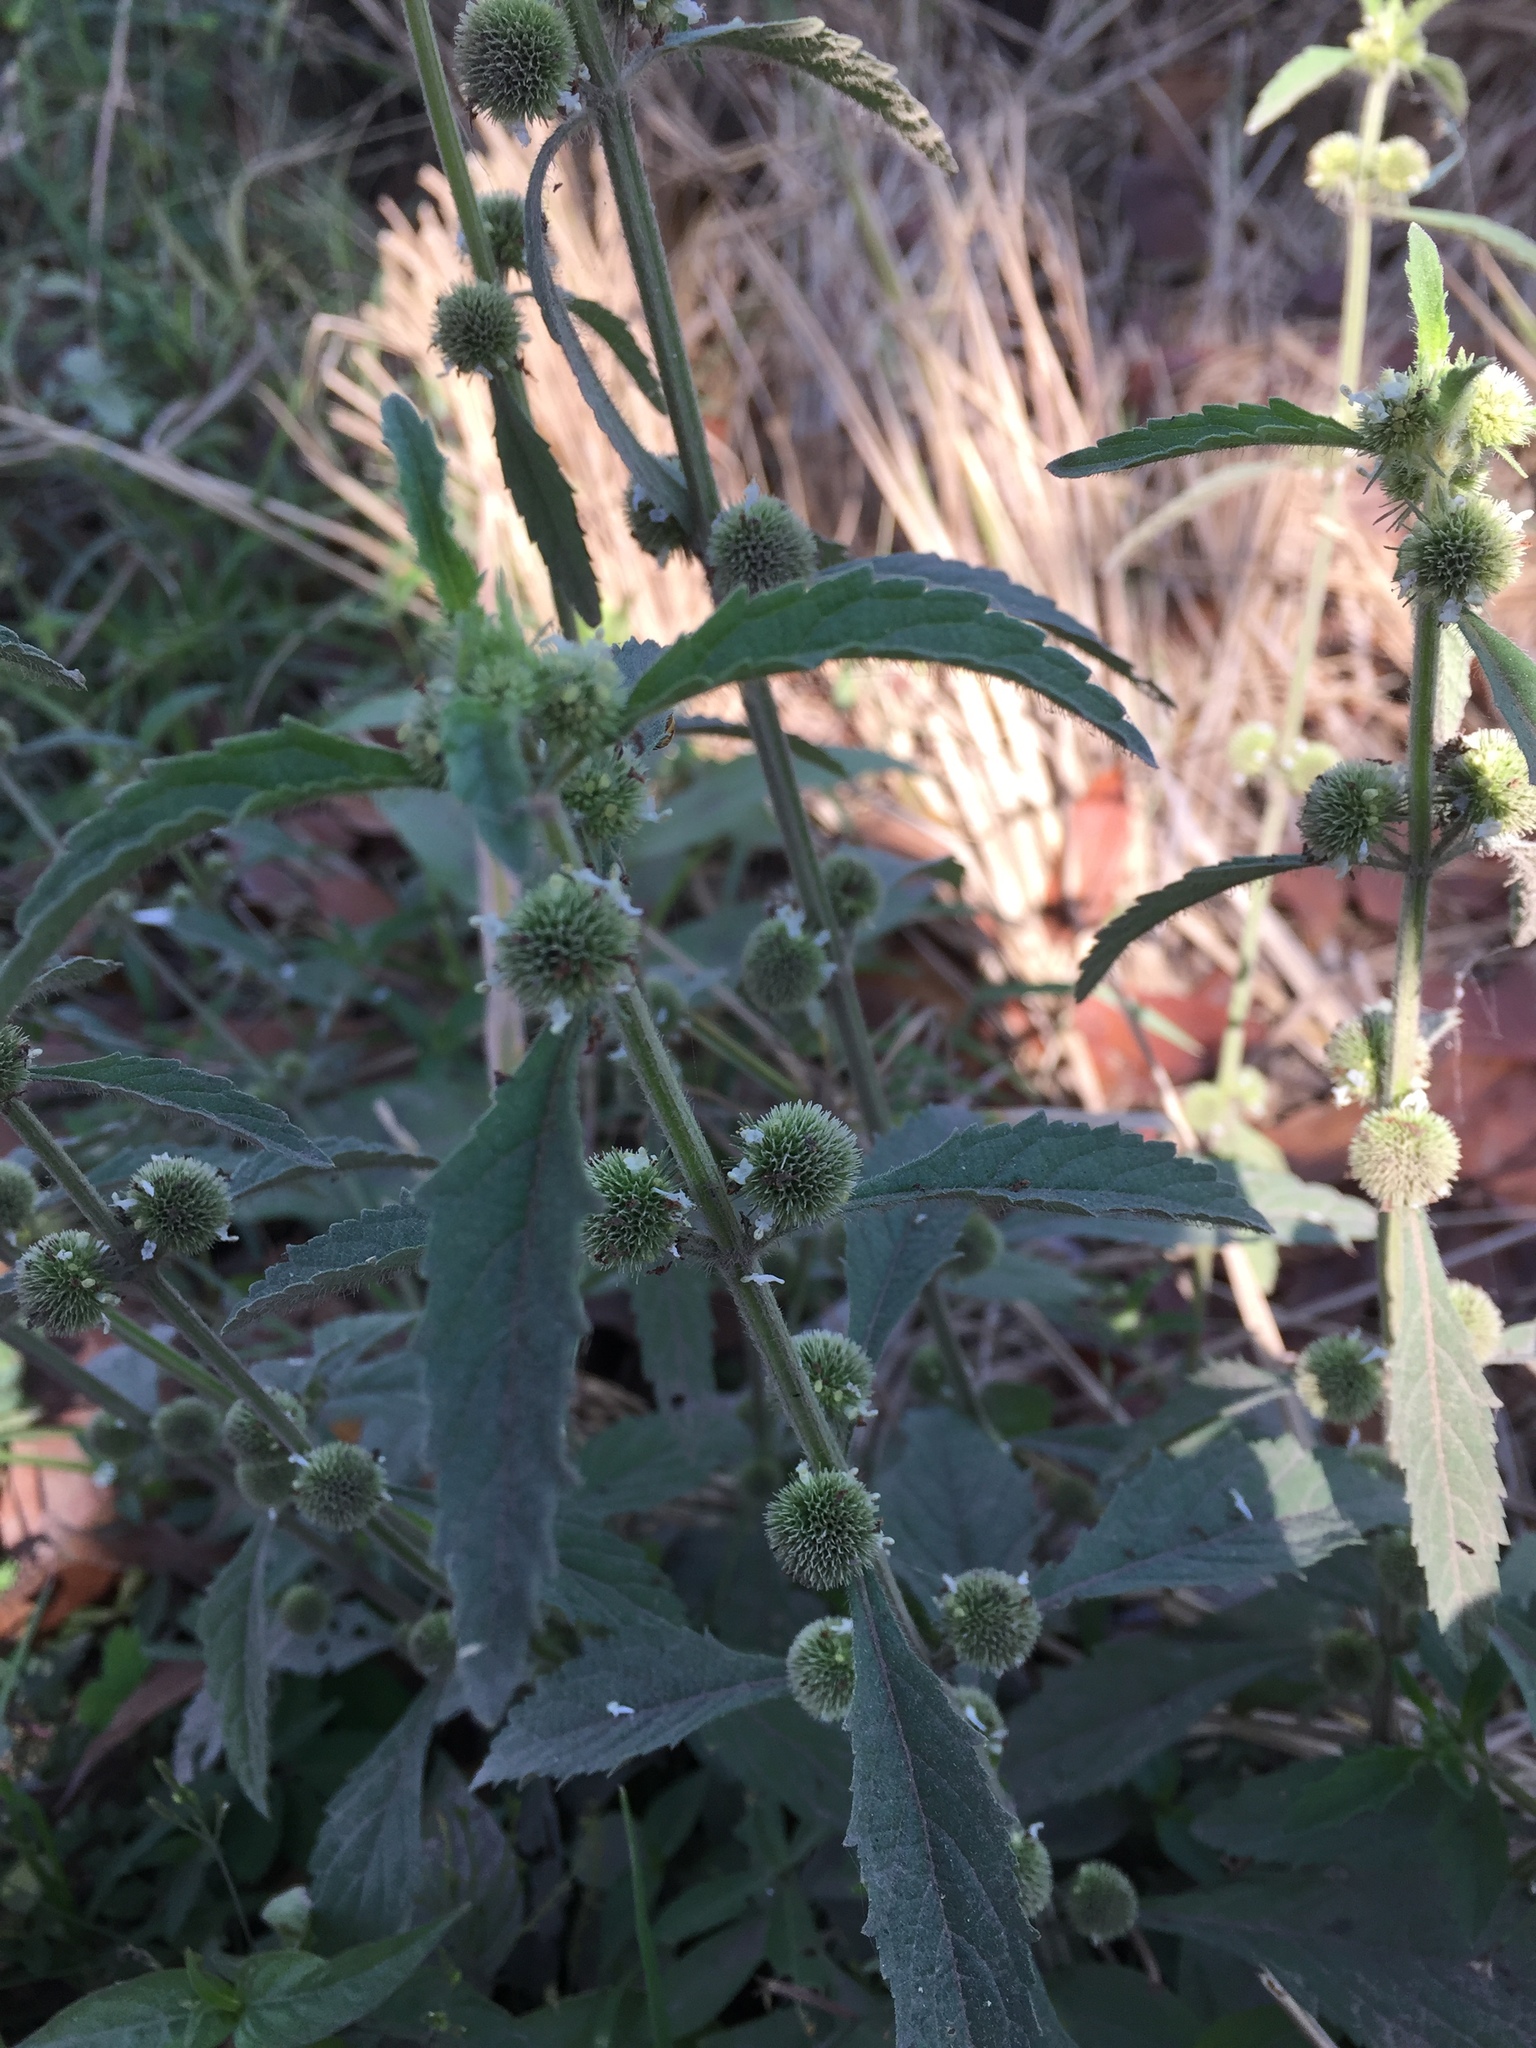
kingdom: Plantae
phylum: Tracheophyta
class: Magnoliopsida
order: Lamiales
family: Lamiaceae
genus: Hyptis
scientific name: Hyptis brevipes
